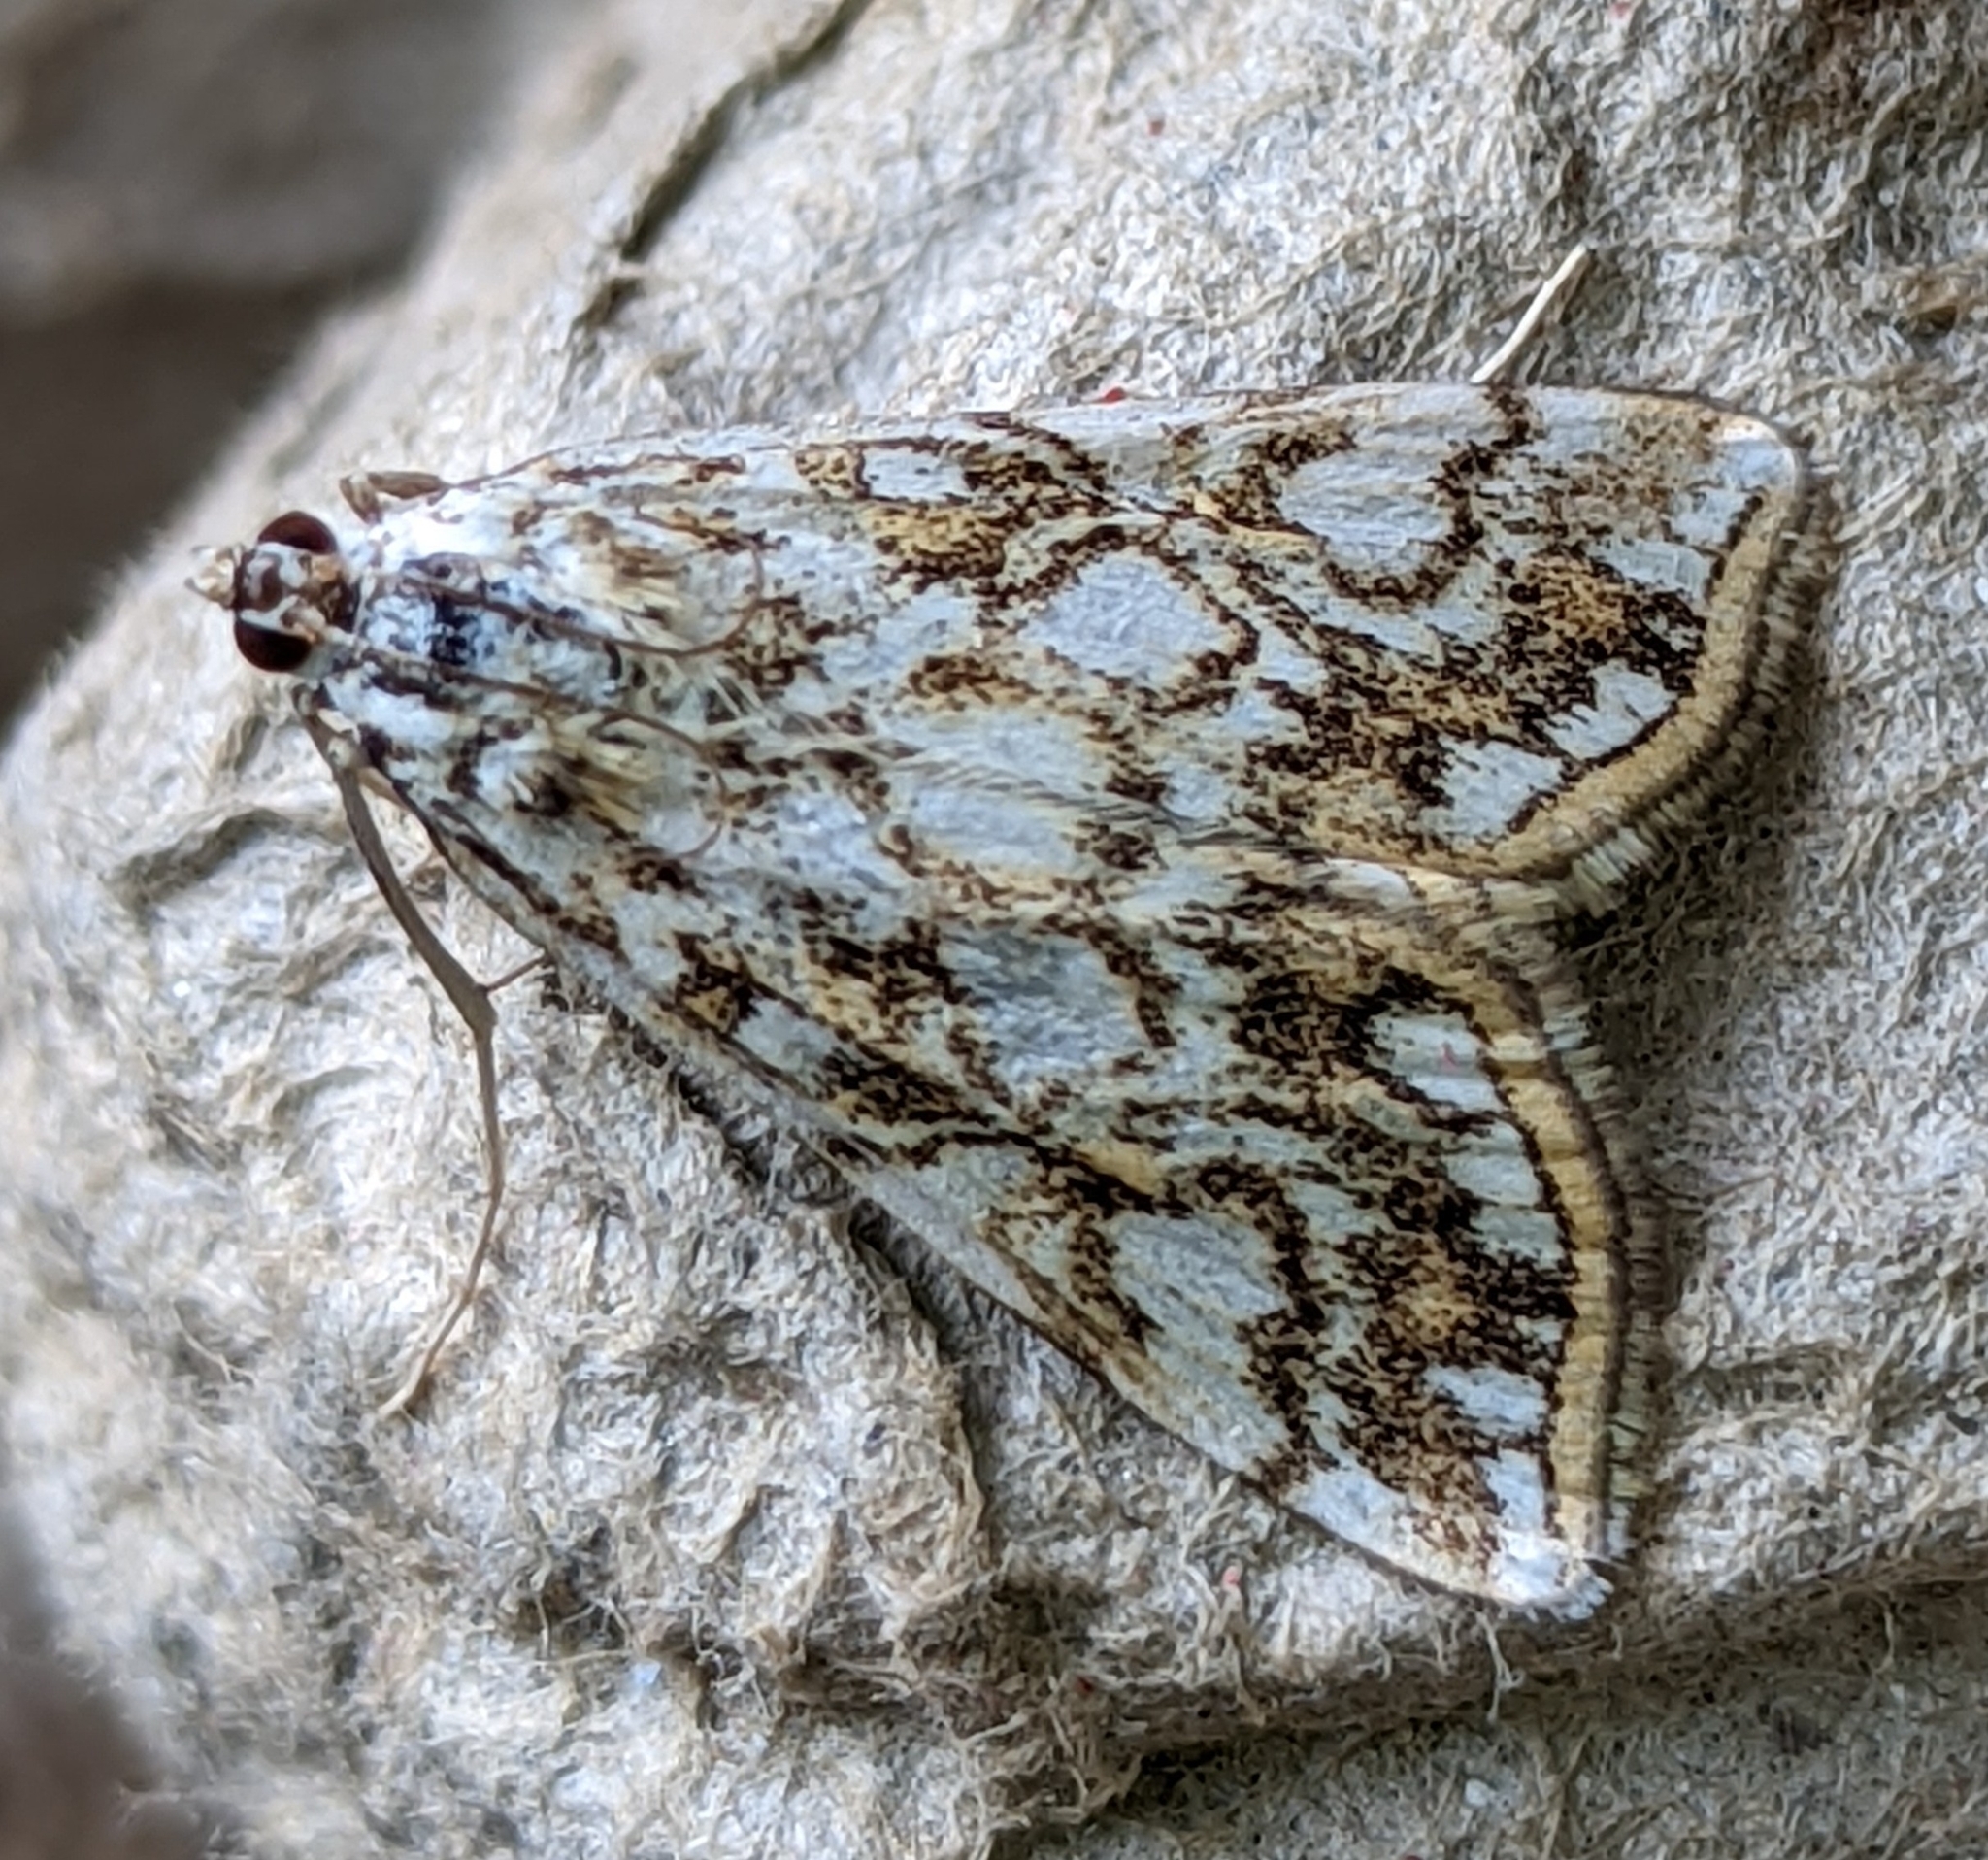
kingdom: Animalia
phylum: Arthropoda
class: Insecta
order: Lepidoptera
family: Crambidae
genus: Elophila
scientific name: Elophila nymphaeata
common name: Brown china-mark
